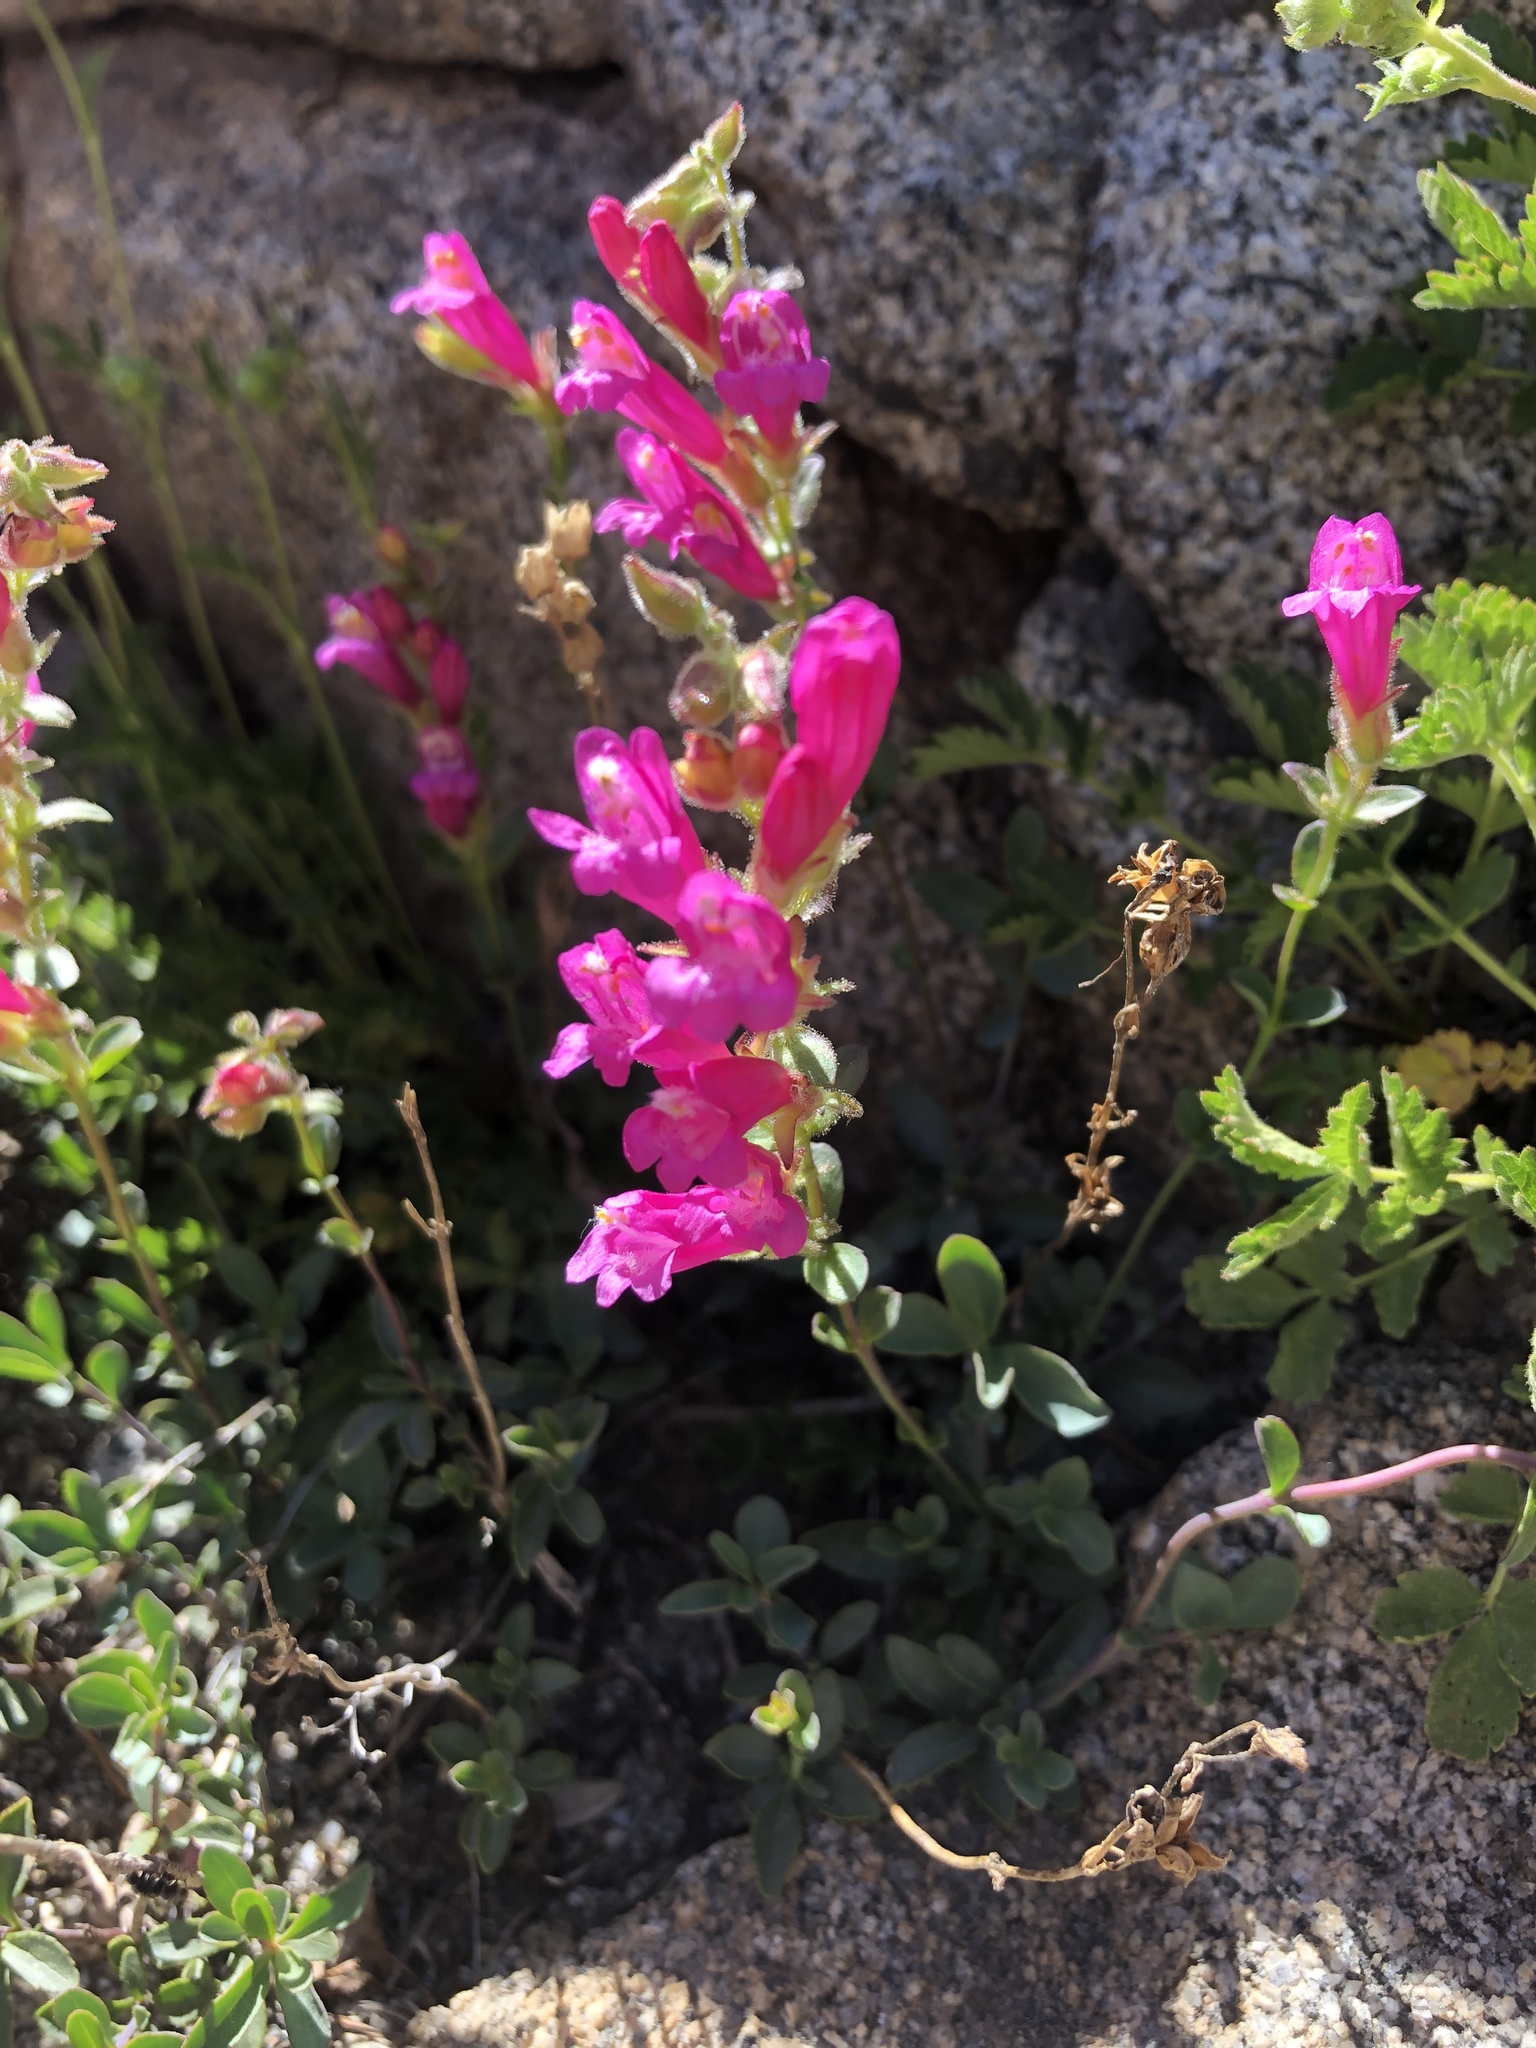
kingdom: Plantae
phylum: Tracheophyta
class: Magnoliopsida
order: Lamiales
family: Plantaginaceae
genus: Penstemon
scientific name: Penstemon newberryi
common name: Mountain-pride
